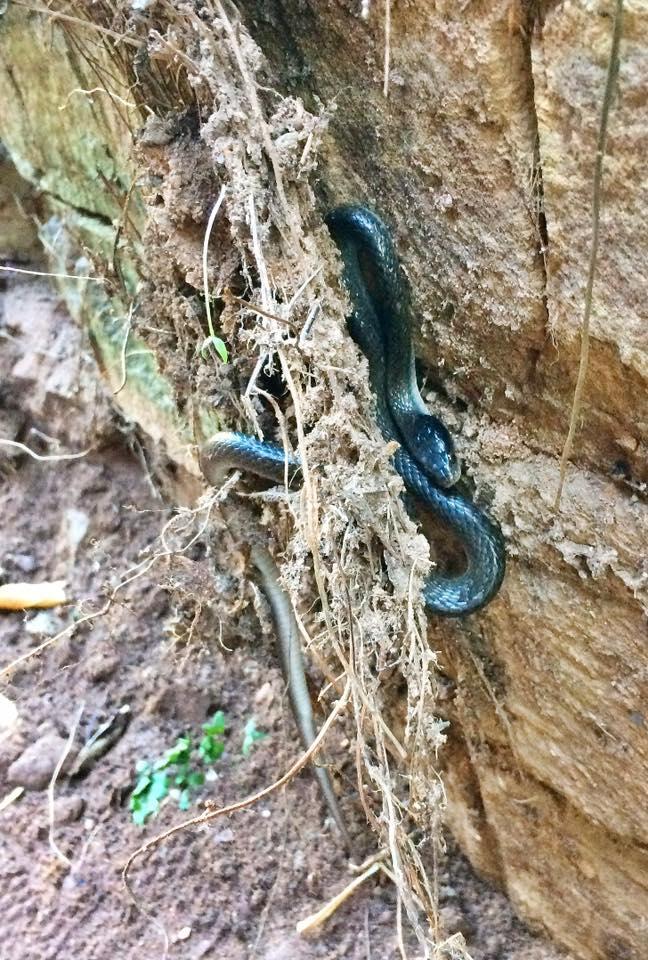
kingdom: Animalia
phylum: Chordata
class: Squamata
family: Colubridae
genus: Crotaphopeltis
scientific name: Crotaphopeltis hotamboeia
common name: Red-lipped snake
